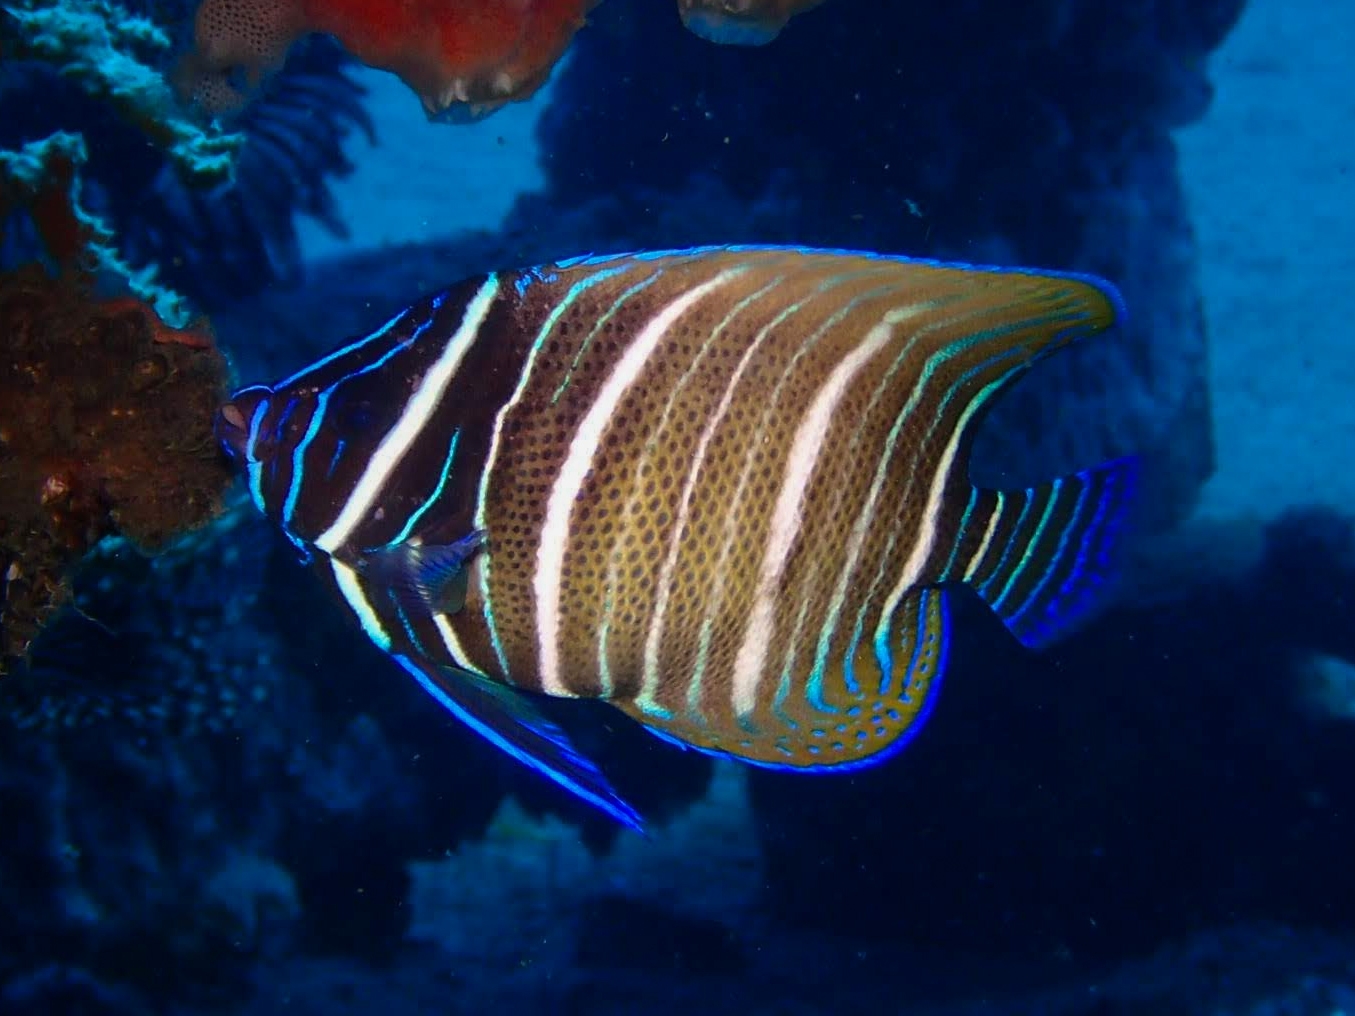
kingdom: Animalia
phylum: Chordata
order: Perciformes
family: Pomacanthidae
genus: Pomacanthus
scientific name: Pomacanthus sexstriatus
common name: Six-banded angelfish
